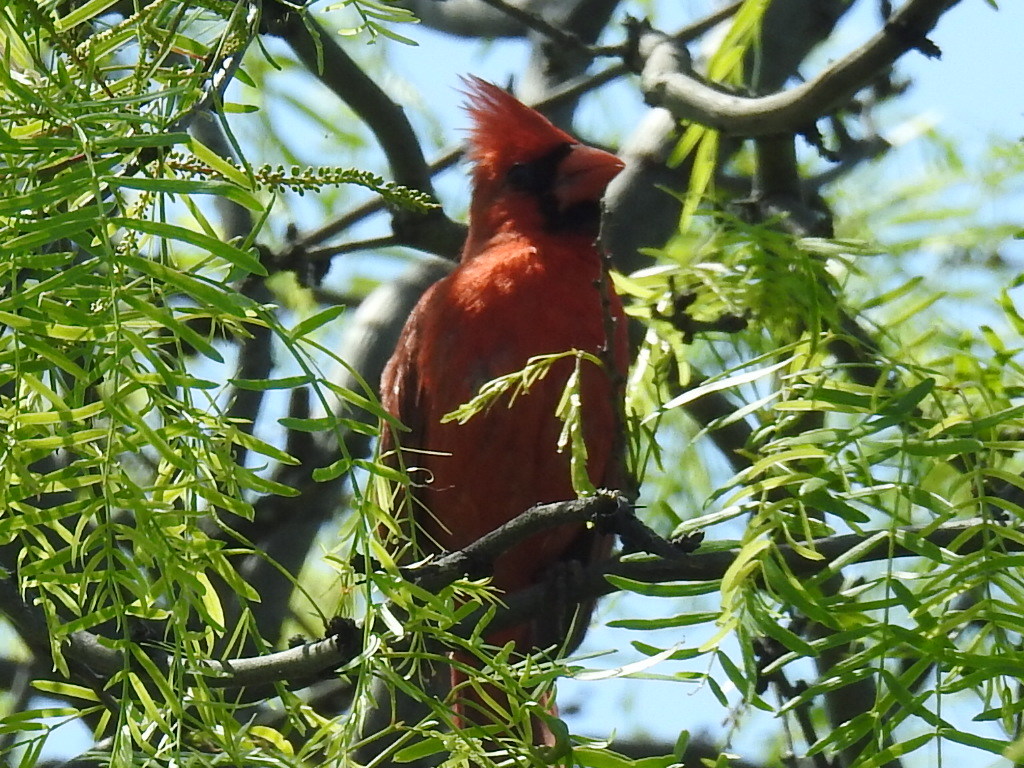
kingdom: Animalia
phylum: Chordata
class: Aves
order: Passeriformes
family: Cardinalidae
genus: Cardinalis
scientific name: Cardinalis cardinalis
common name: Northern cardinal
